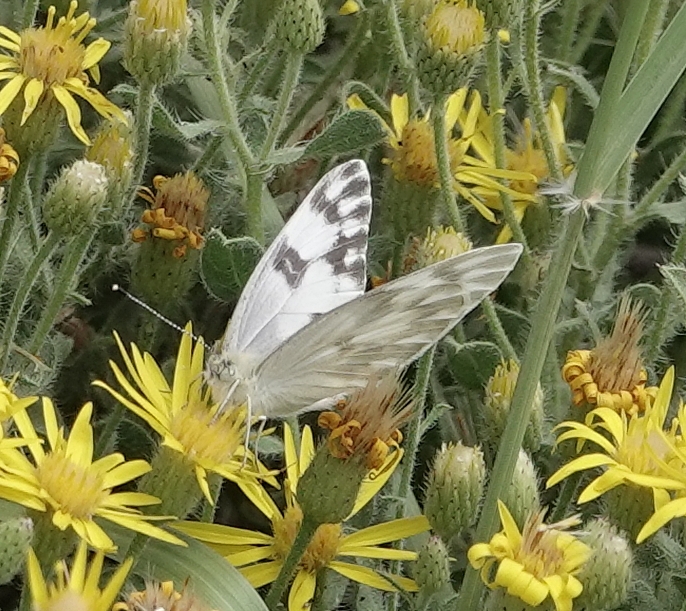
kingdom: Animalia
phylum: Arthropoda
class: Insecta
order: Lepidoptera
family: Pieridae
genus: Pontia
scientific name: Pontia protodice
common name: Checkered white
